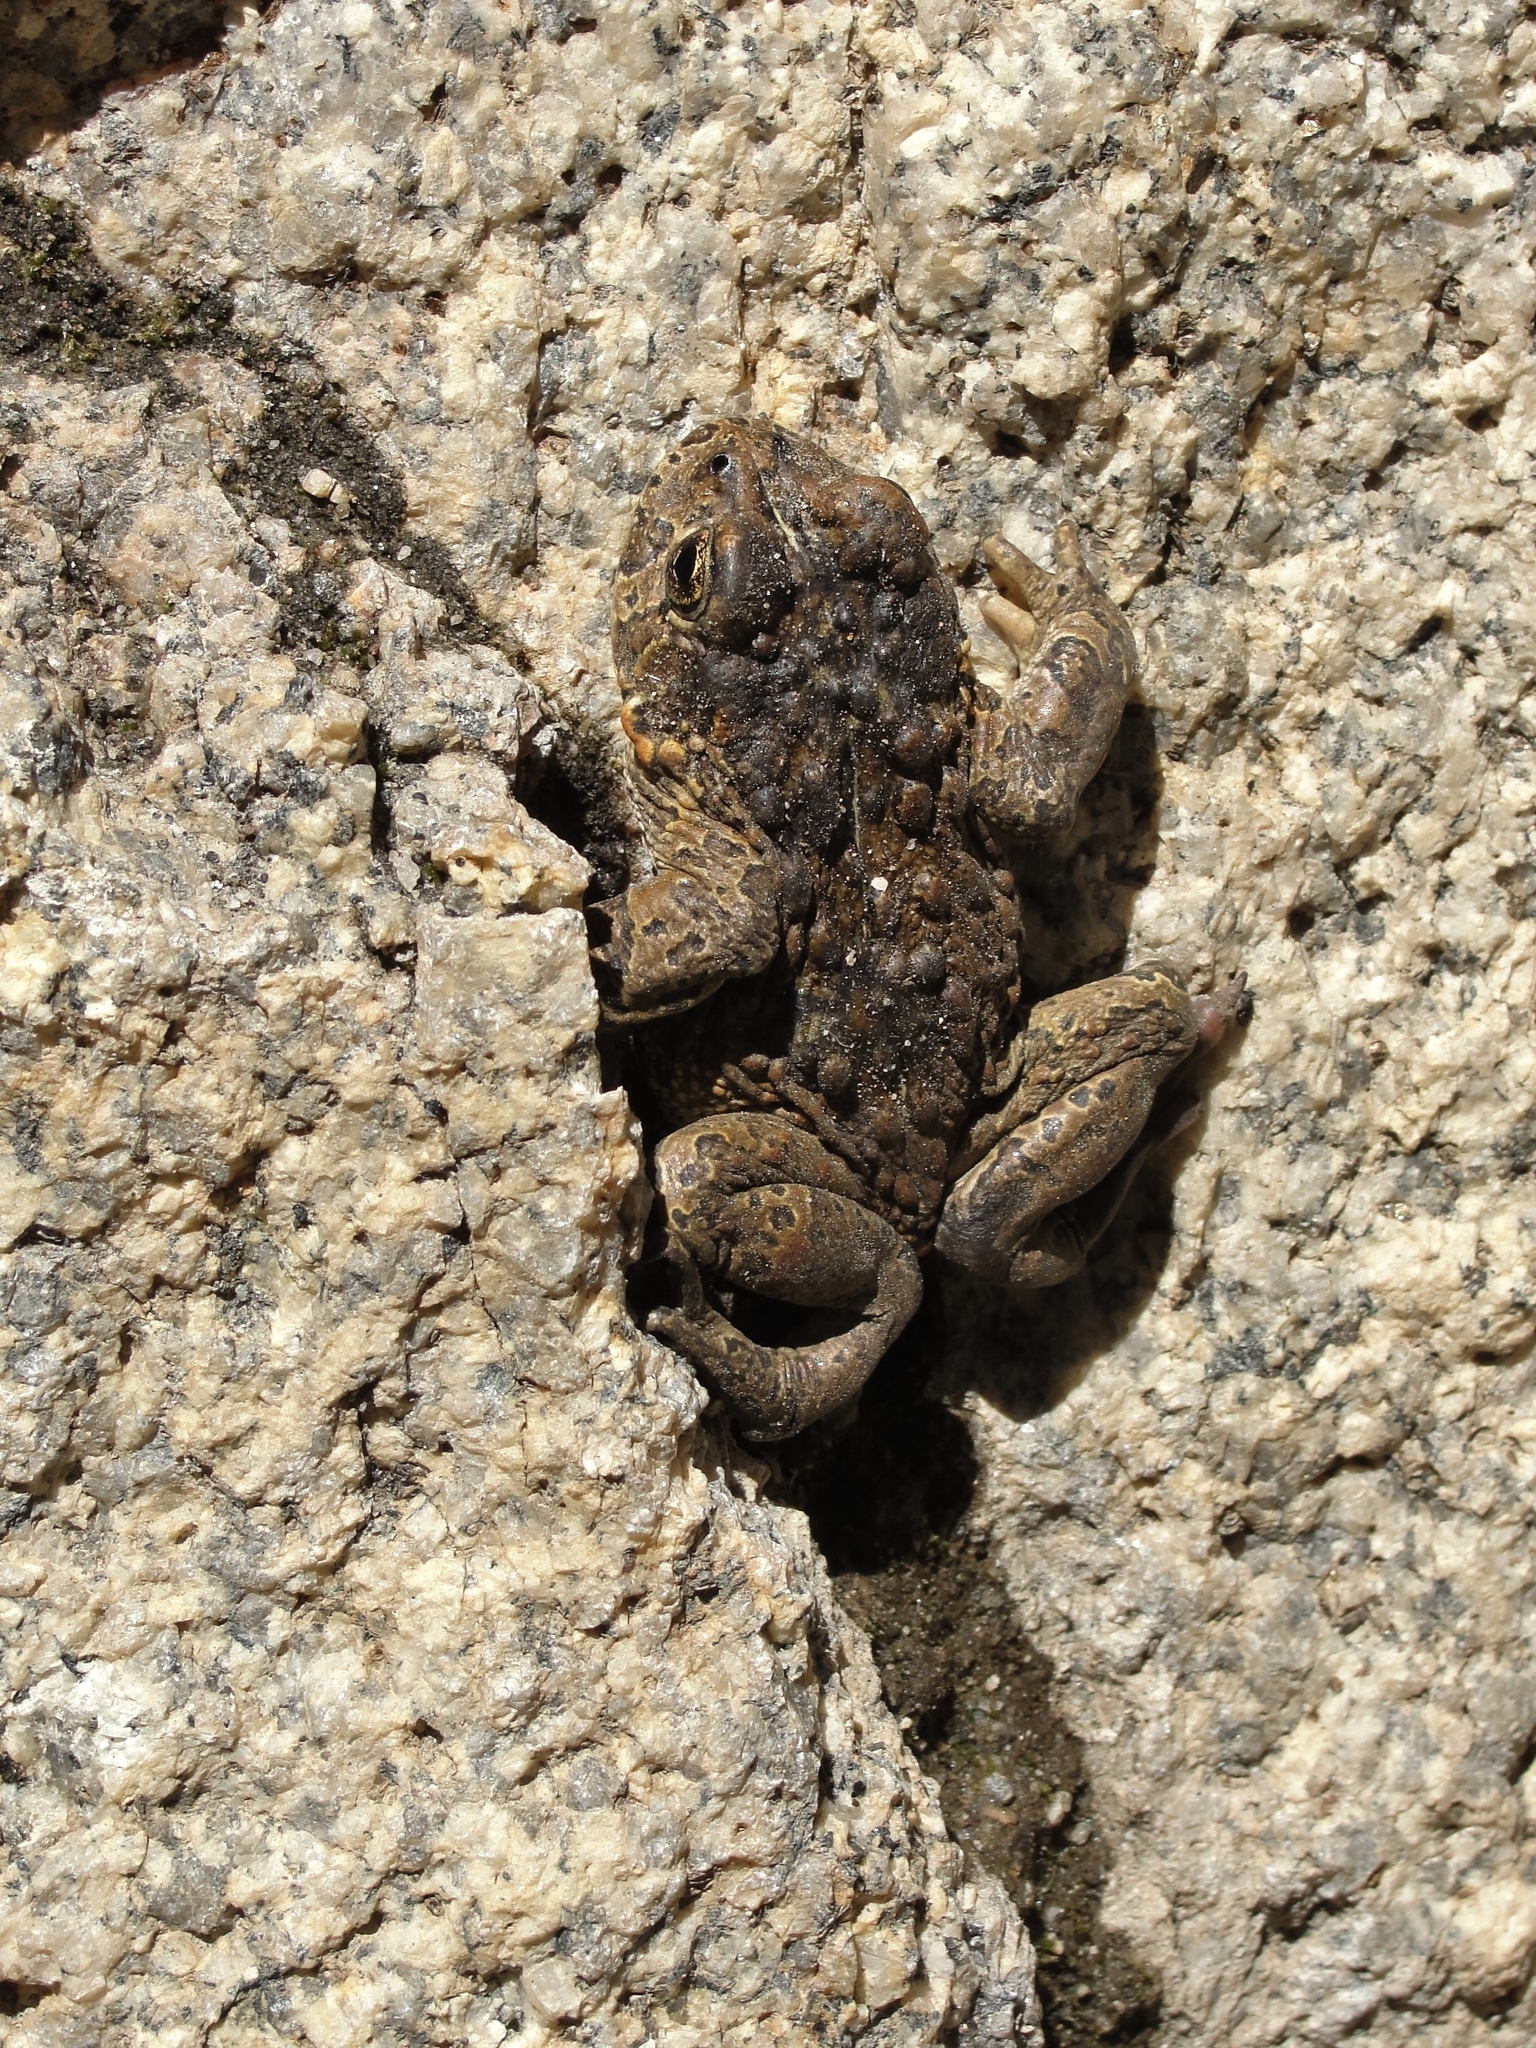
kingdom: Animalia
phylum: Chordata
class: Amphibia
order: Anura
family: Bufonidae
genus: Anaxyrus
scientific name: Anaxyrus canorus
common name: Yosemite toad
